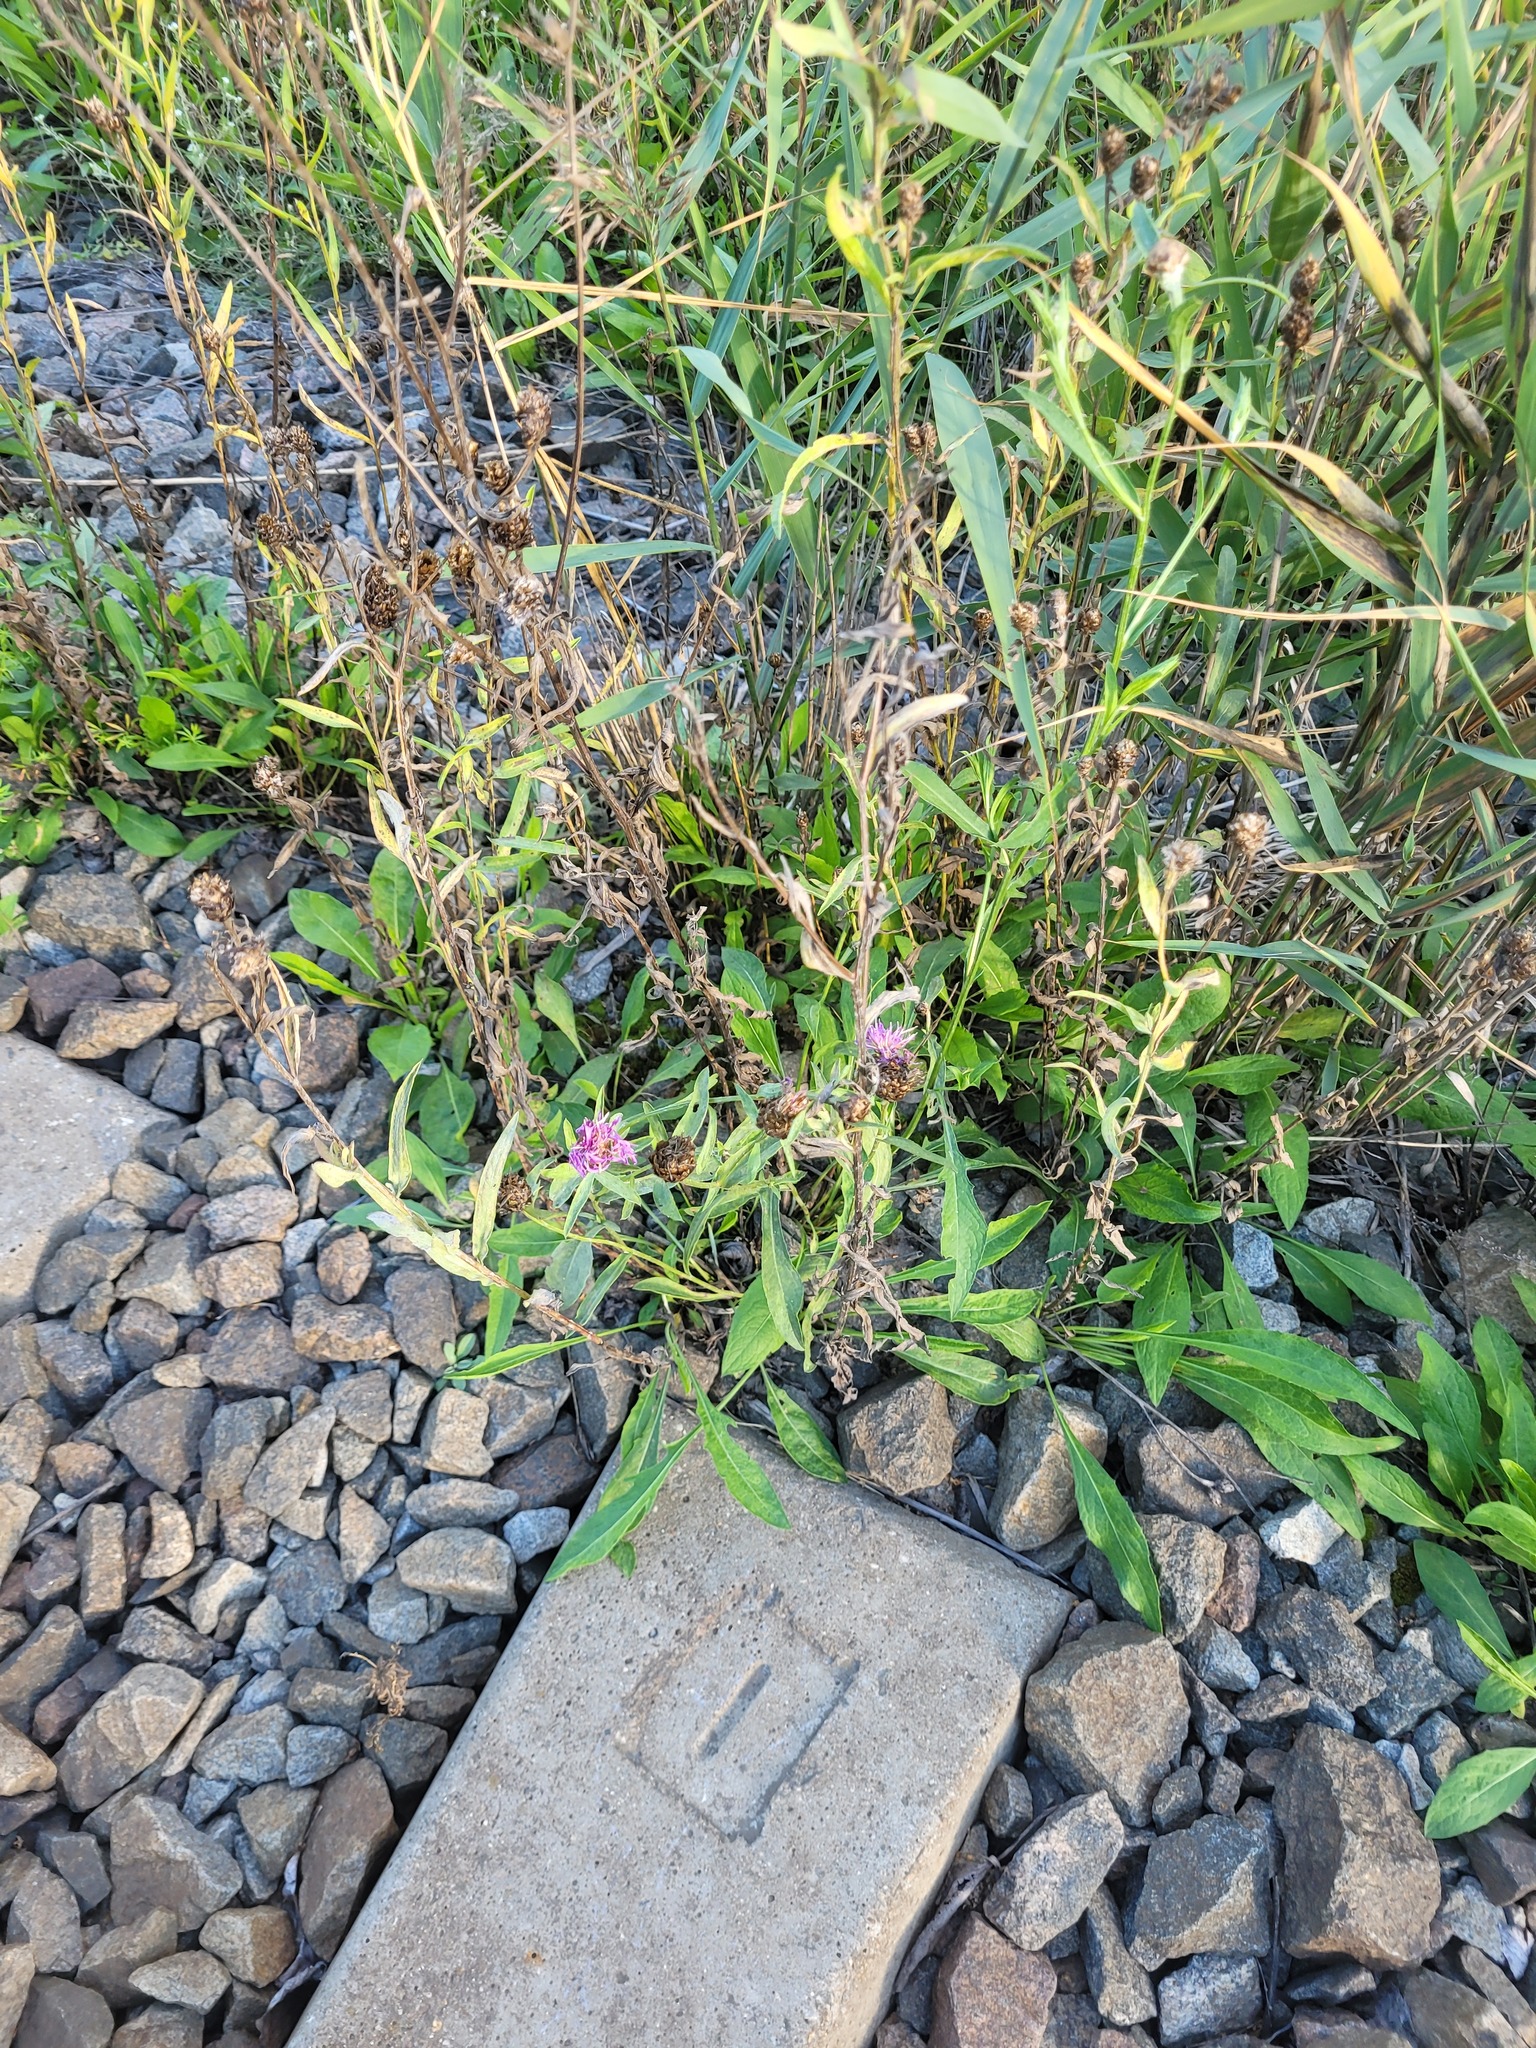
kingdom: Plantae
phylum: Tracheophyta
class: Magnoliopsida
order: Asterales
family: Asteraceae
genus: Centaurea
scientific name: Centaurea jacea
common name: Brown knapweed
